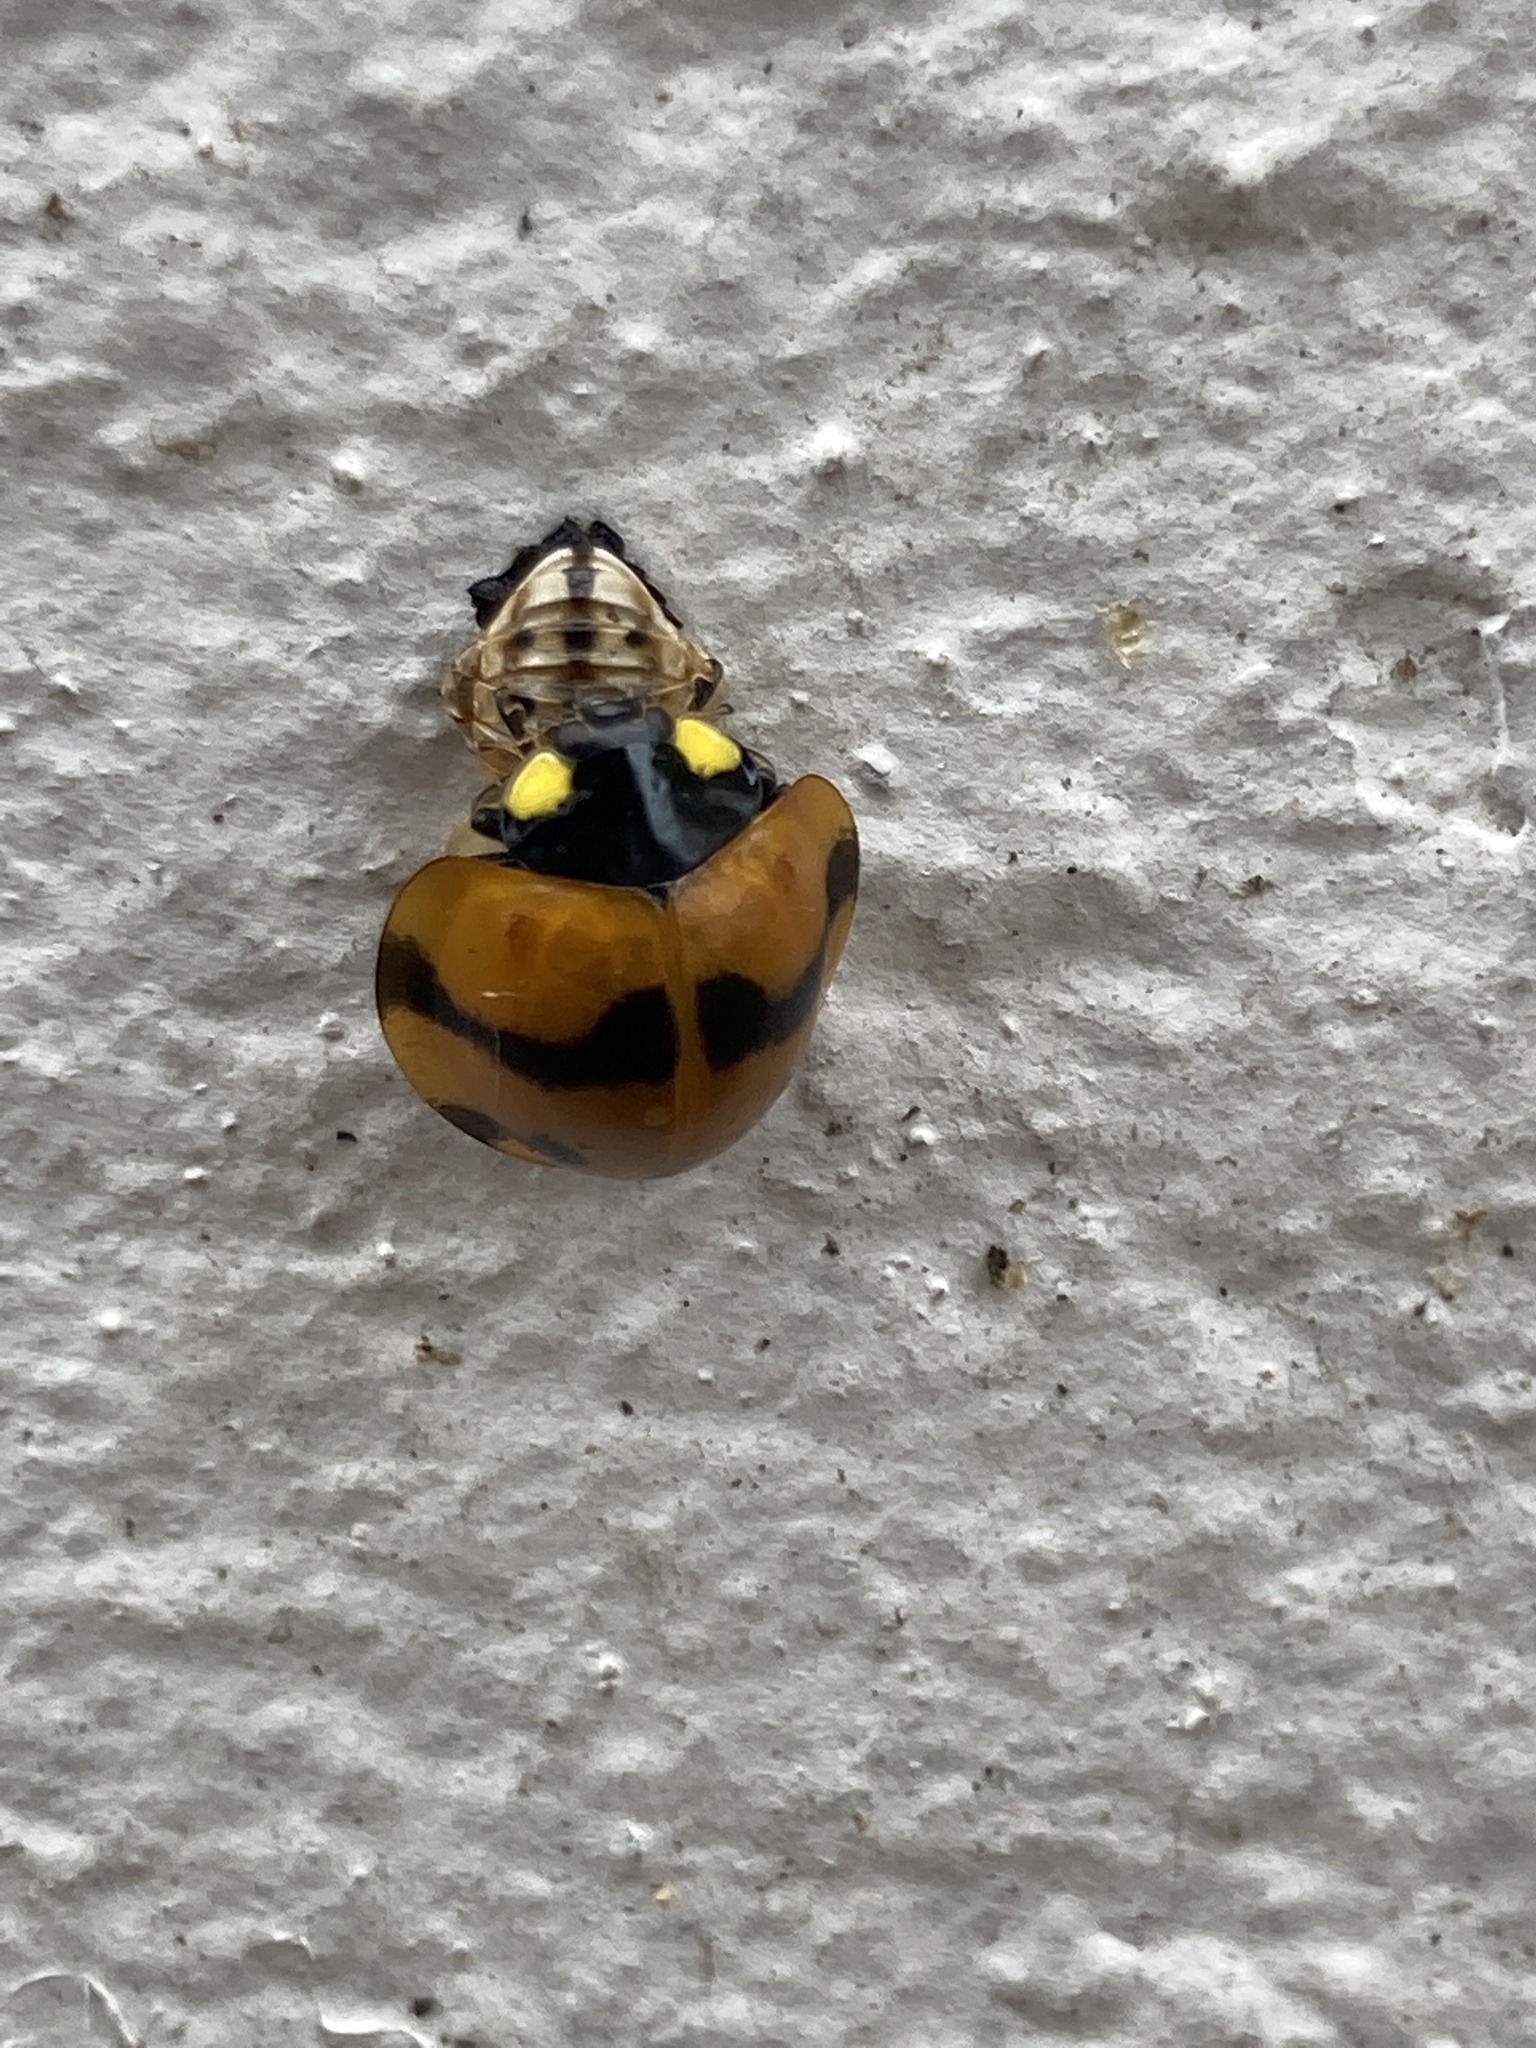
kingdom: Animalia
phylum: Arthropoda
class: Insecta
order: Coleoptera
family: Coccinellidae
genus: Neda
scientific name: Neda norrisi
